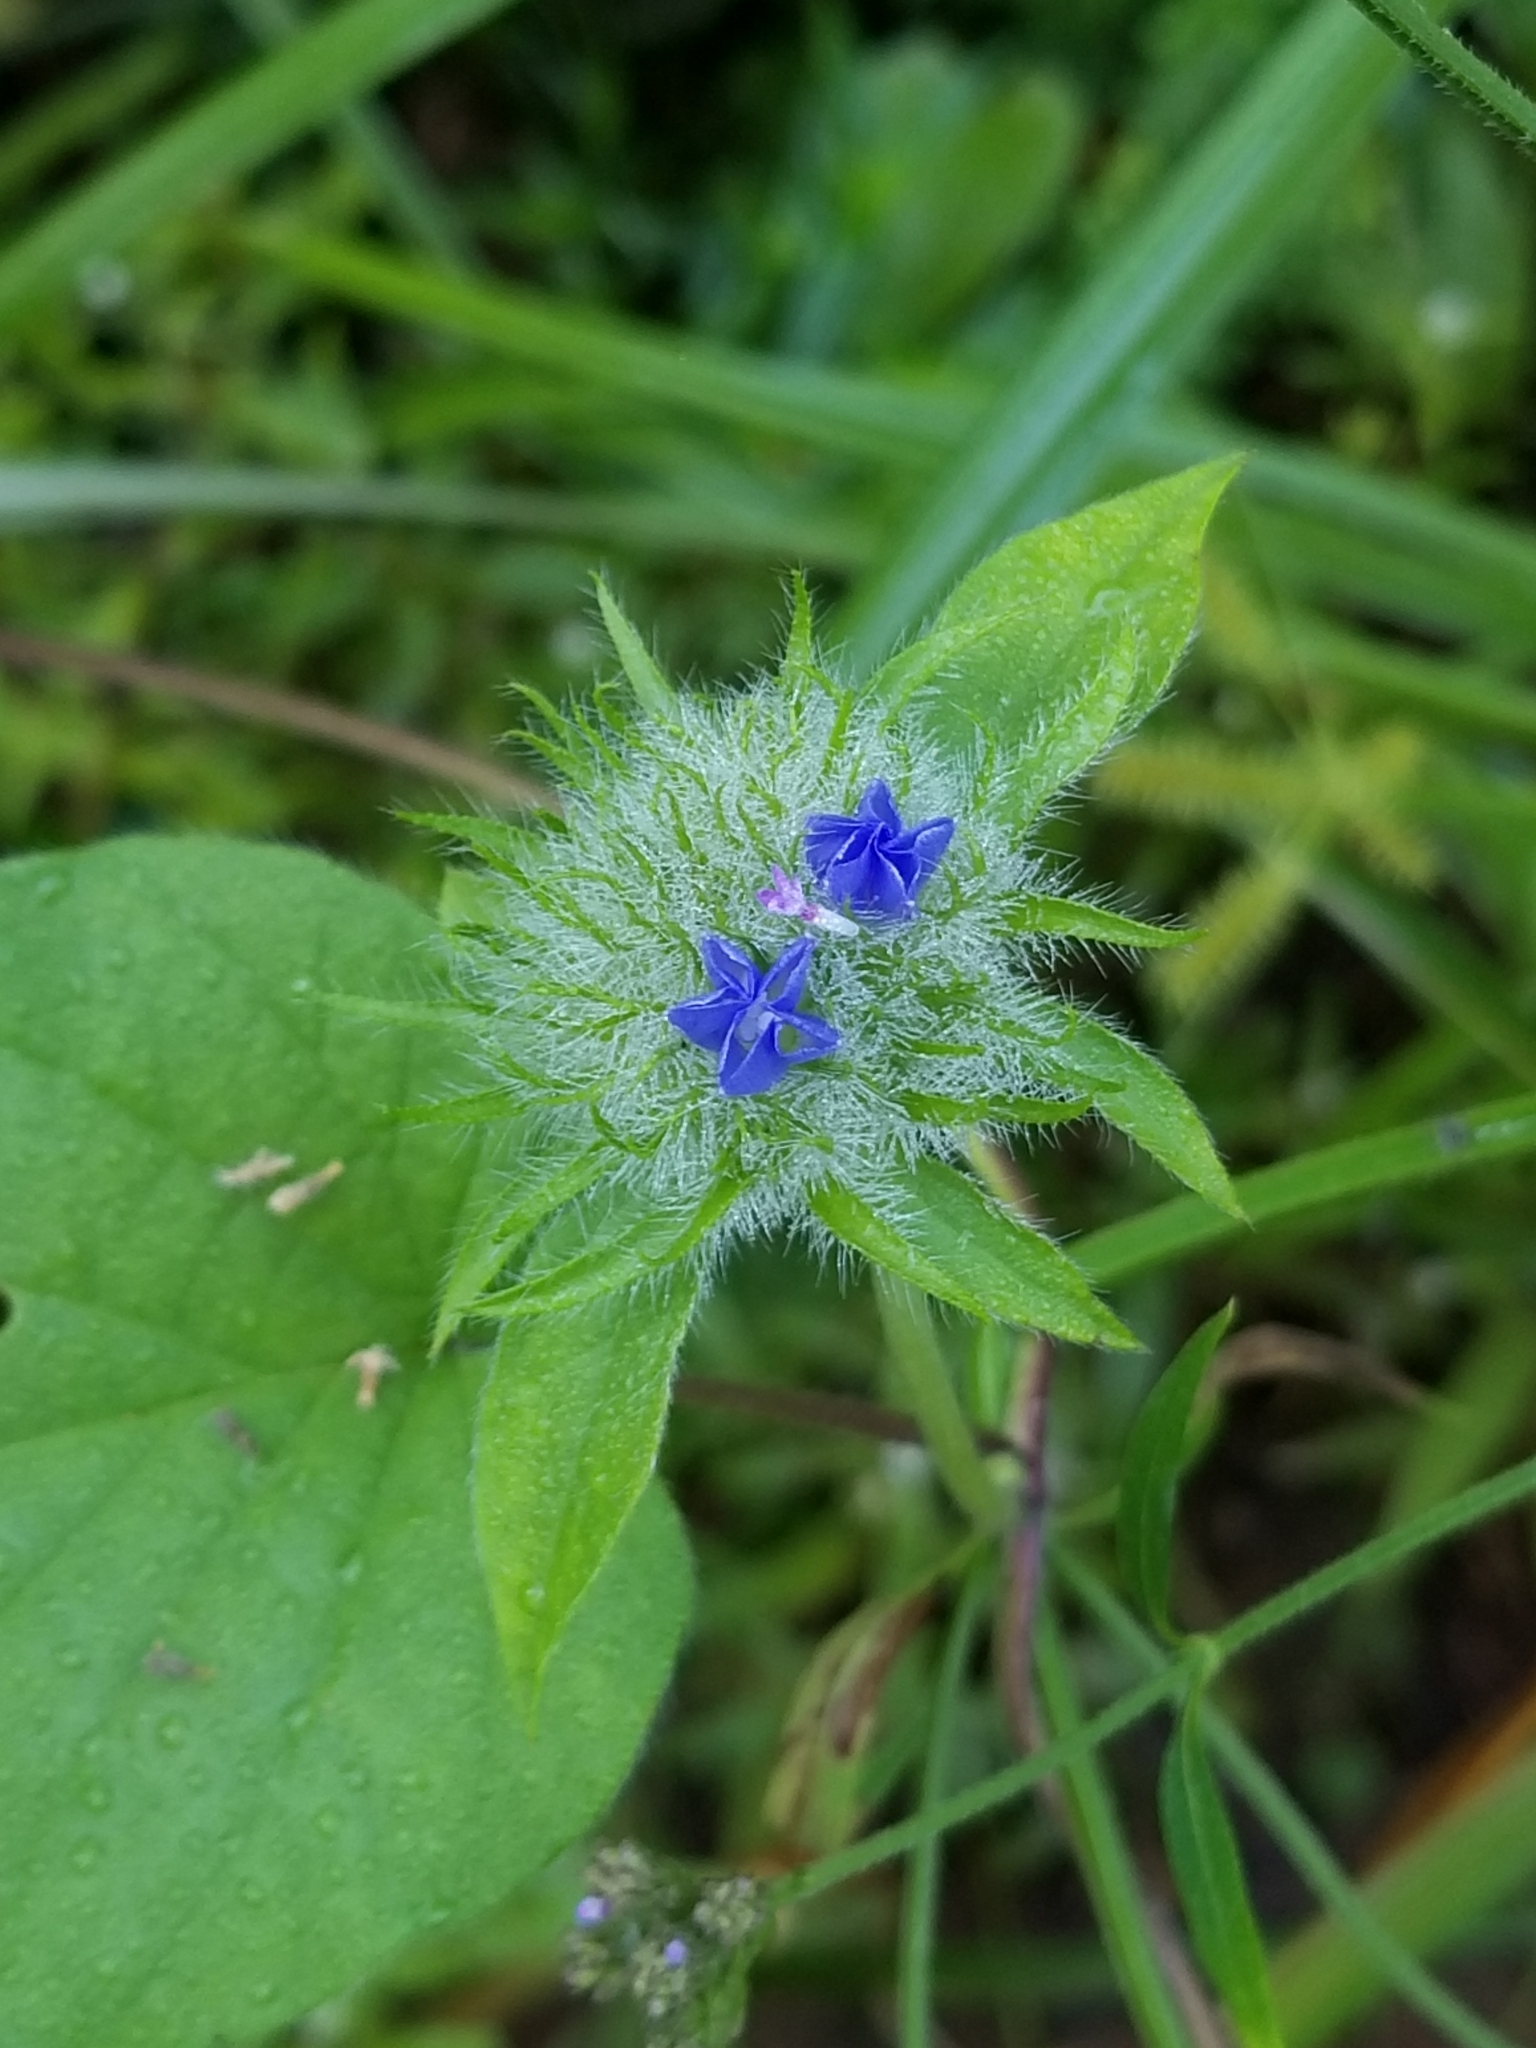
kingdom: Plantae
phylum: Tracheophyta
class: Magnoliopsida
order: Solanales
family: Convolvulaceae
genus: Jacquemontia
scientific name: Jacquemontia tamnifolia
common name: Hairy clustervine
